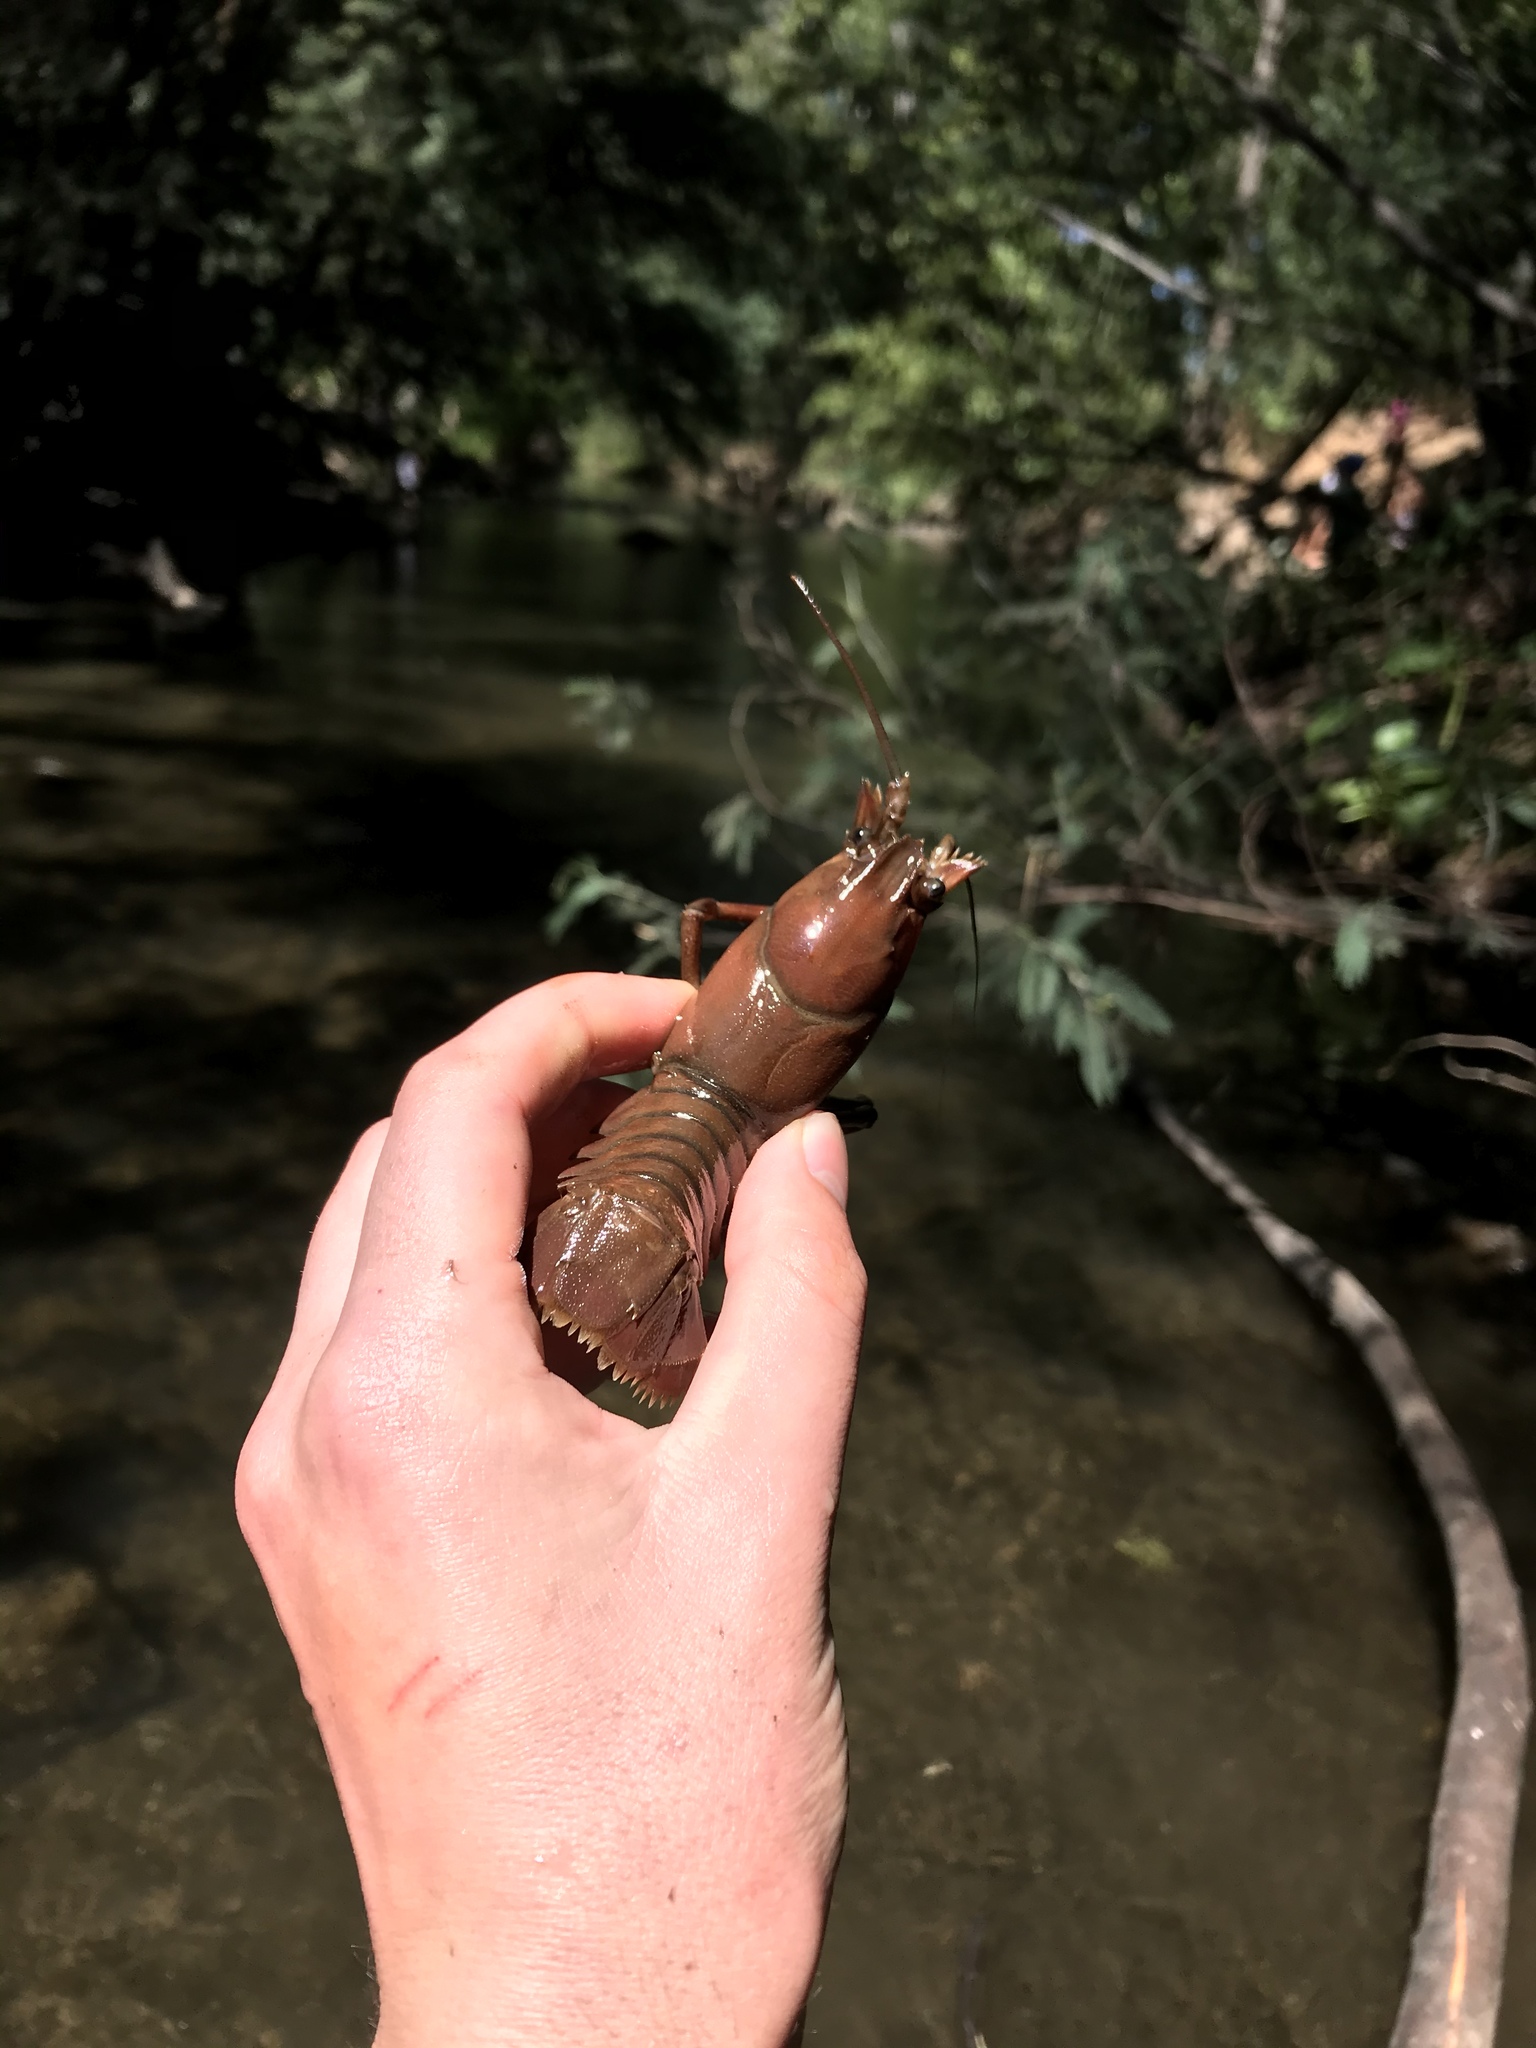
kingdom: Animalia
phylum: Arthropoda
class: Malacostraca
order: Decapoda
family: Astacidae
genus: Pacifastacus
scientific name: Pacifastacus leniusculus
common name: Signal crayfish
